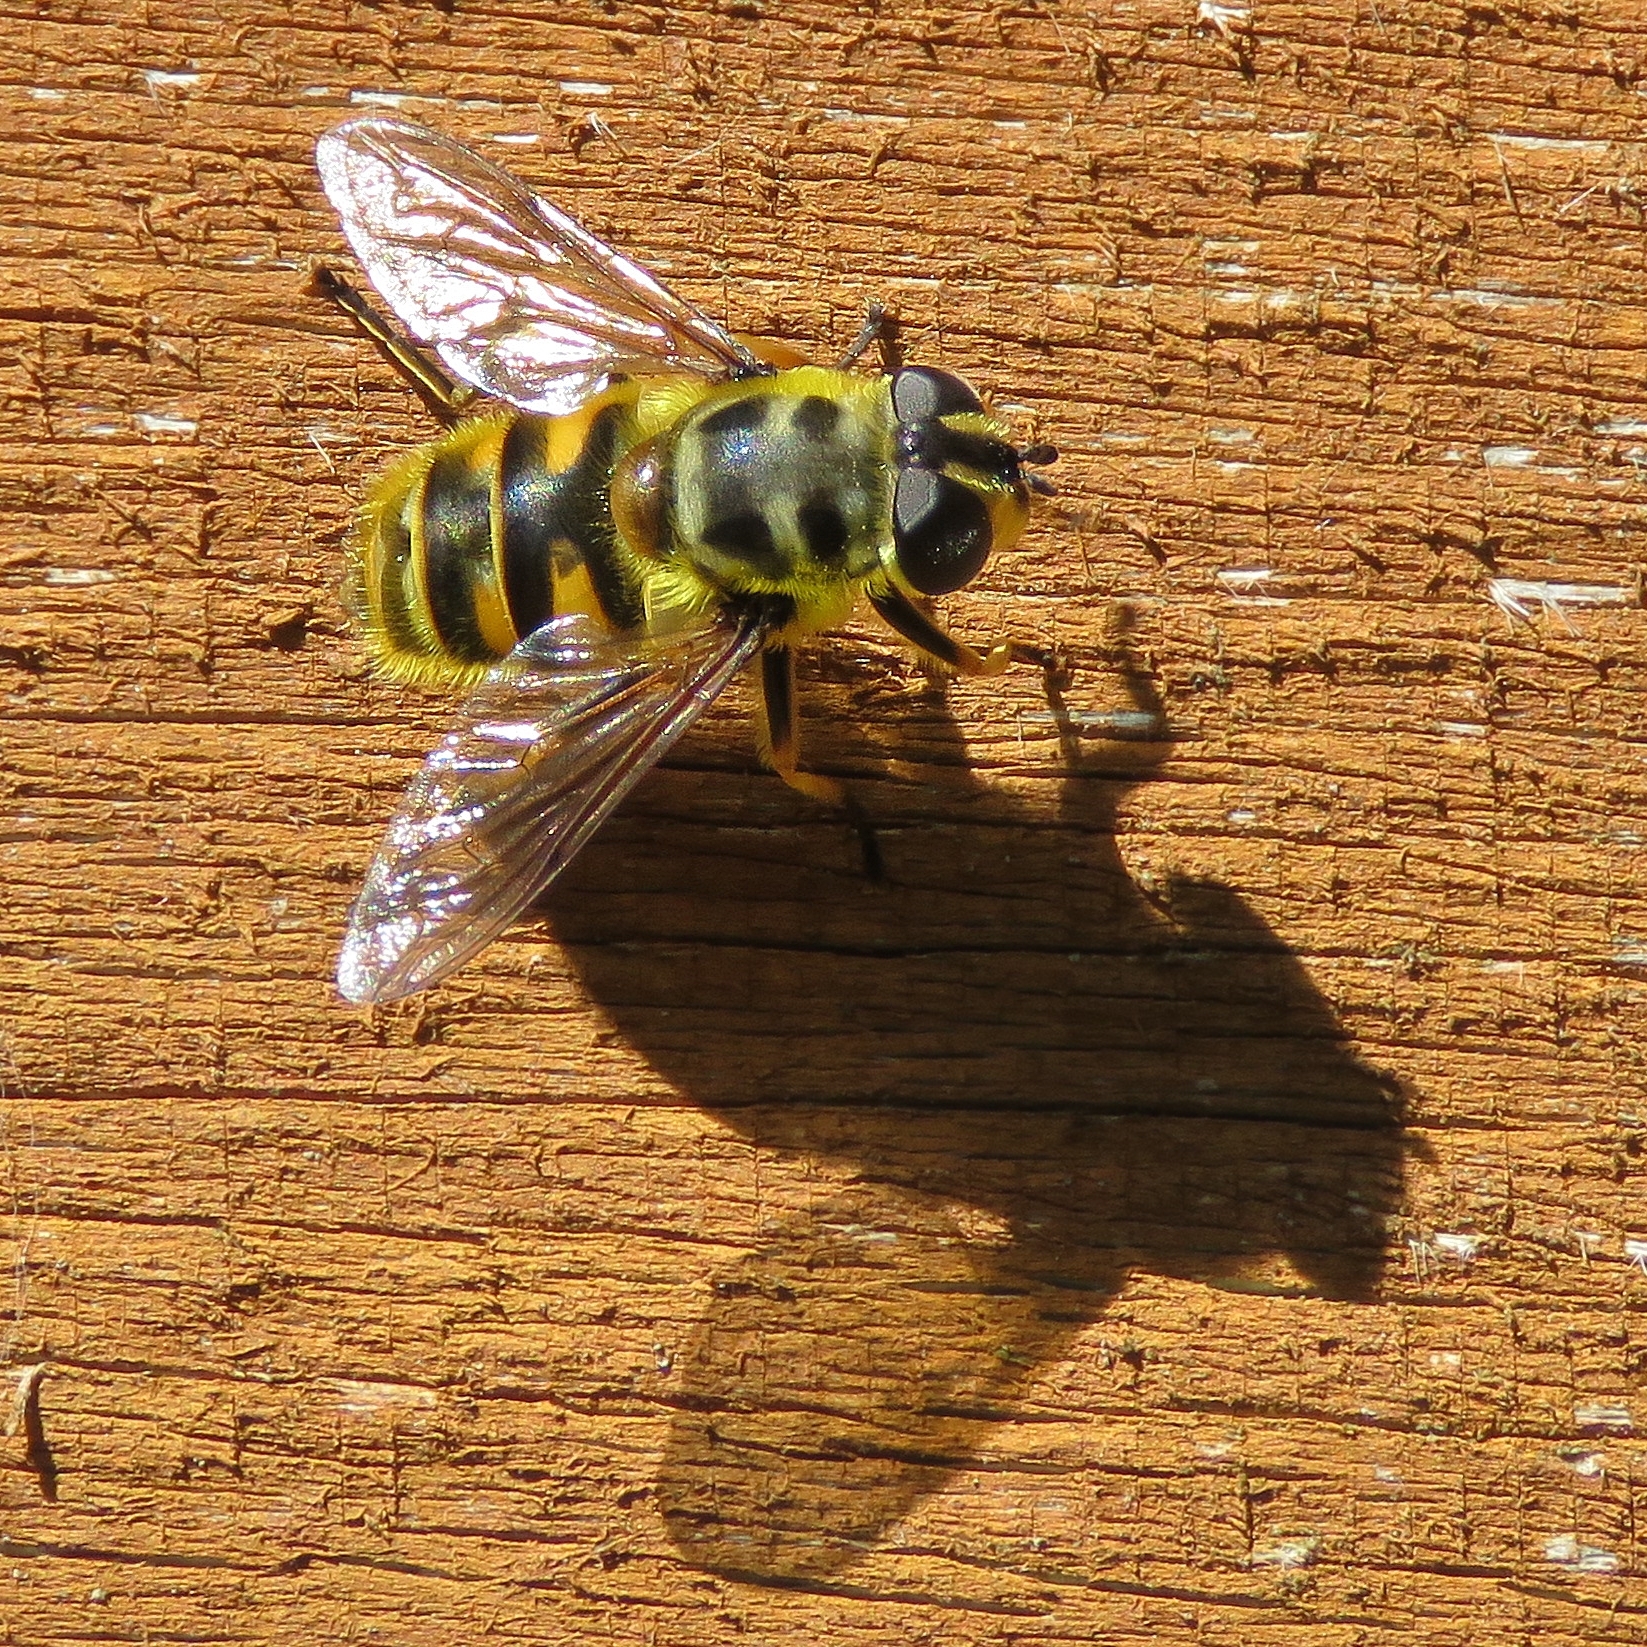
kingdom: Animalia
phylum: Arthropoda
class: Insecta
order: Diptera
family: Syrphidae
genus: Myathropa
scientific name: Myathropa florea
